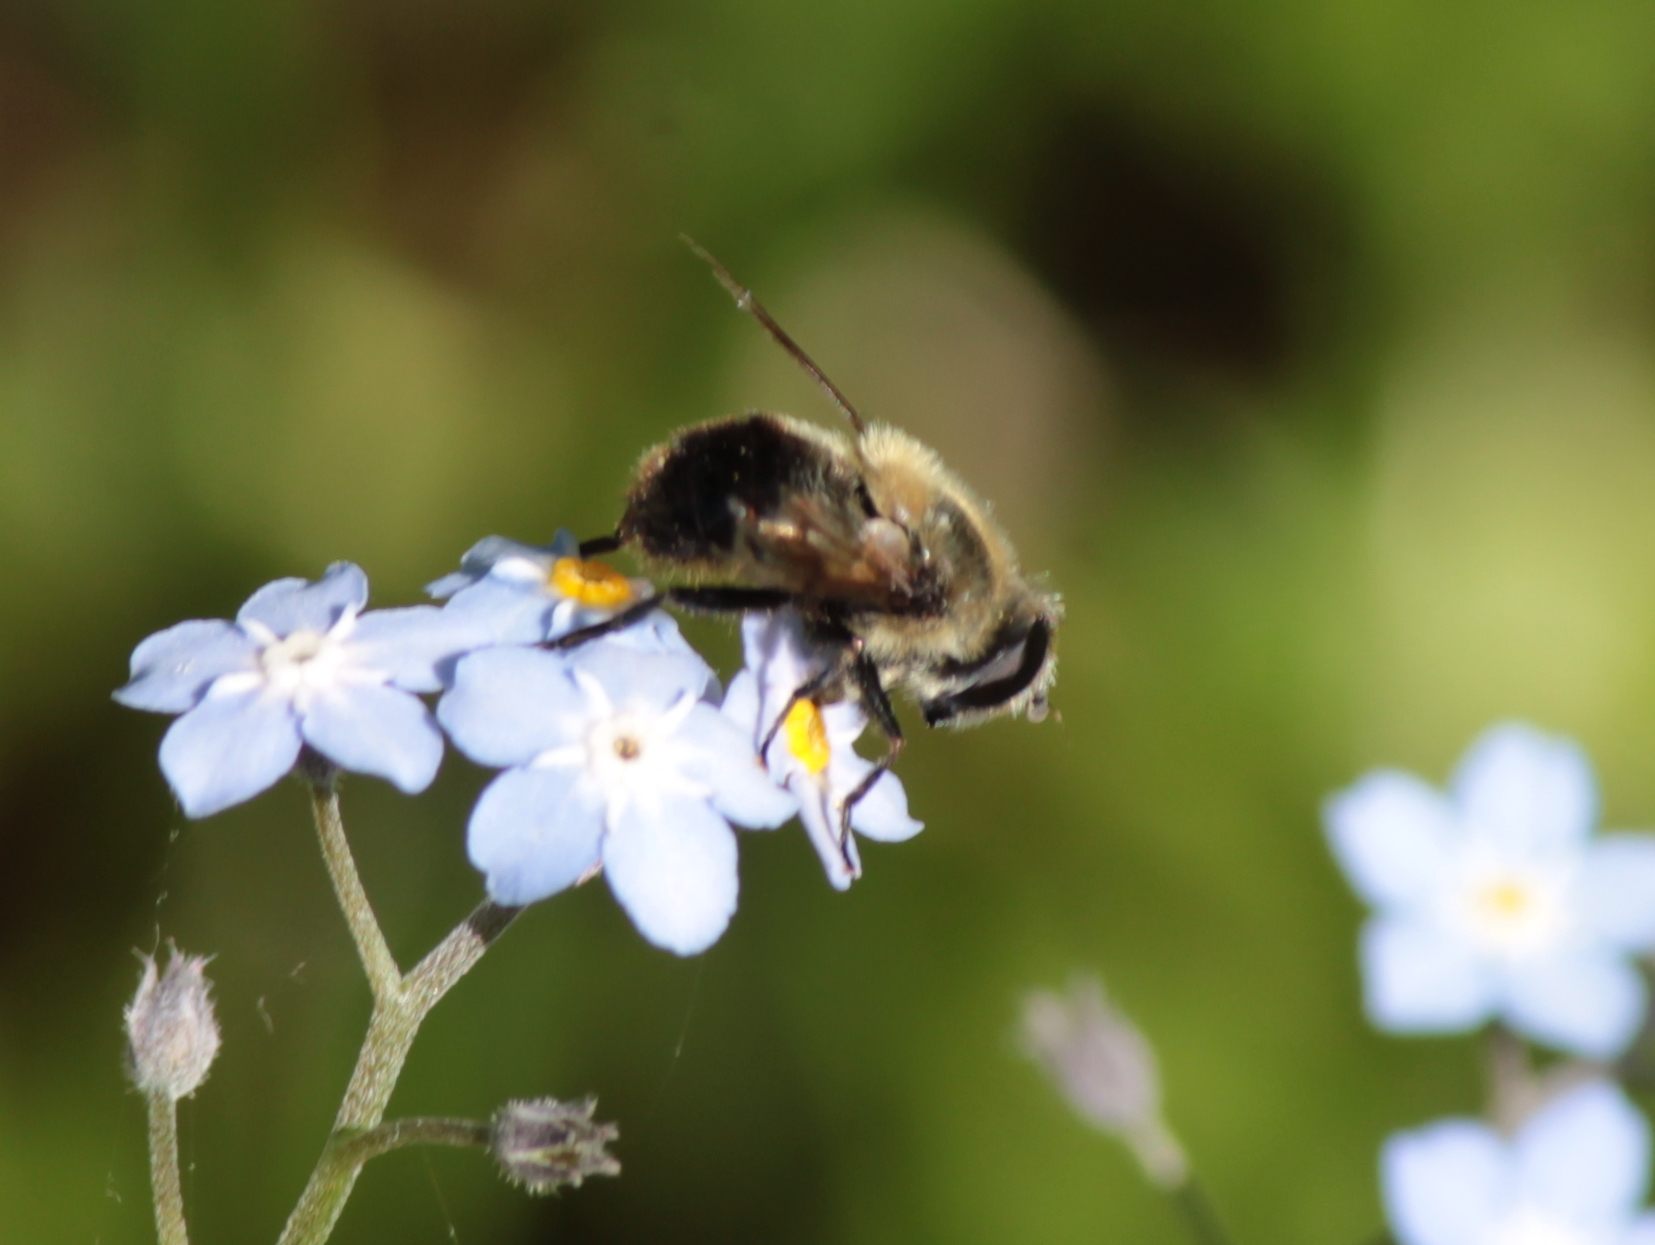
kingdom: Animalia
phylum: Arthropoda
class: Insecta
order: Diptera
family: Syrphidae
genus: Eristalis
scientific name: Eristalis anthophorina
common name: Orange-spotted drone fly
